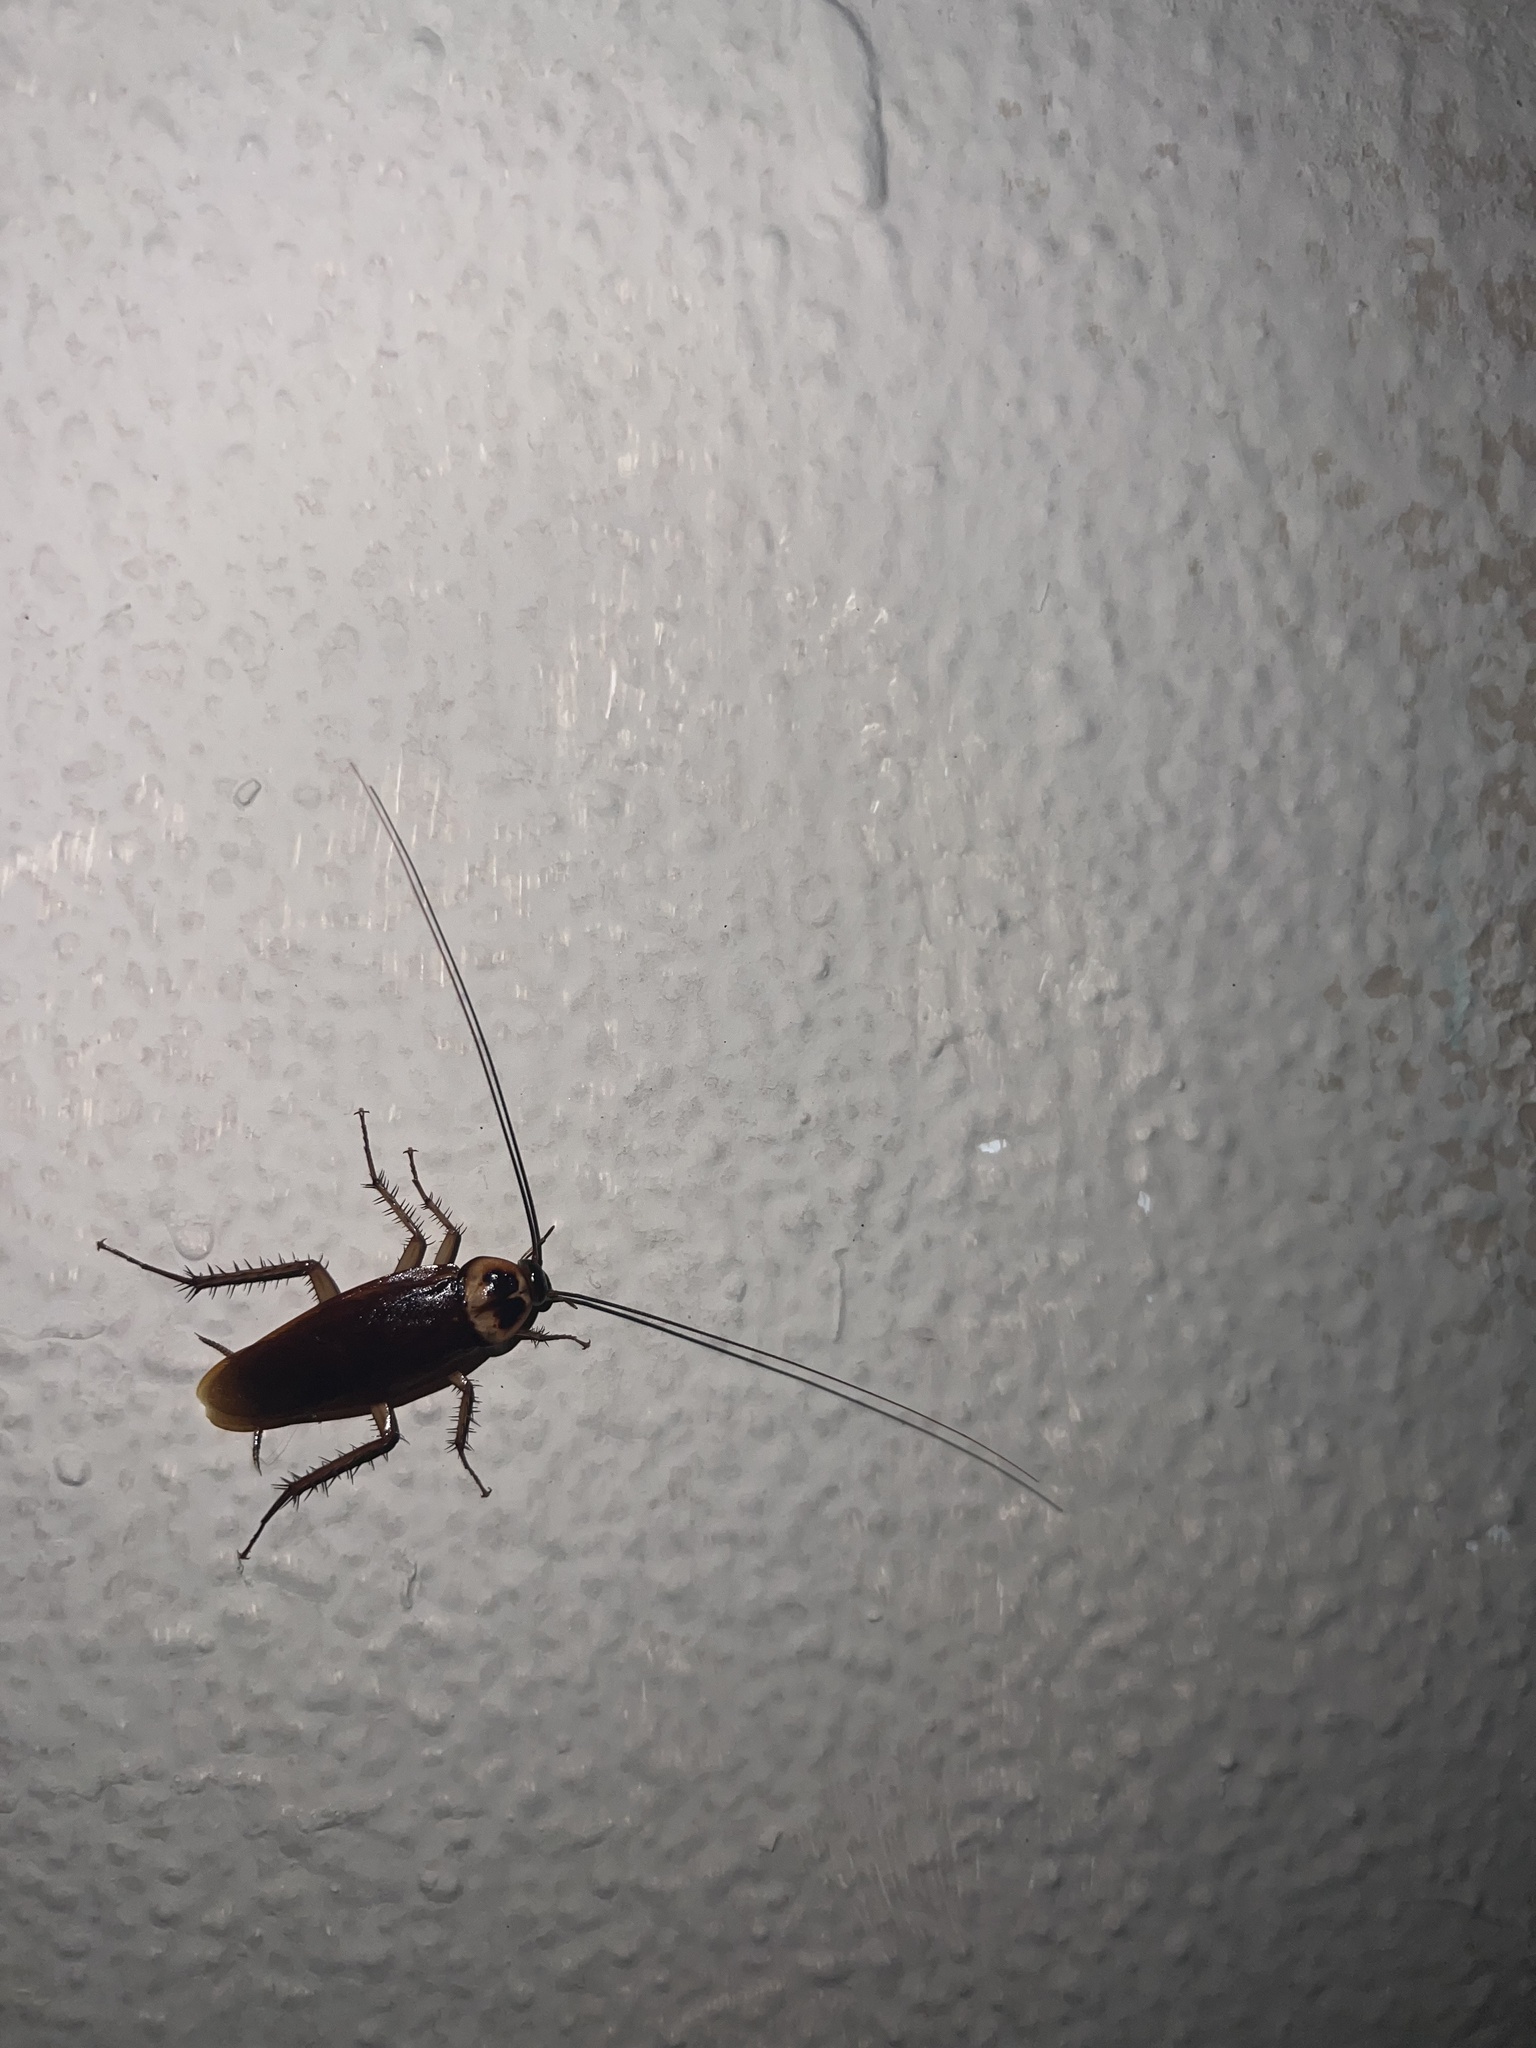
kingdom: Animalia
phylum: Arthropoda
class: Insecta
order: Blattodea
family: Blattidae
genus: Periplaneta
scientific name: Periplaneta americana
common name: American cockroach
